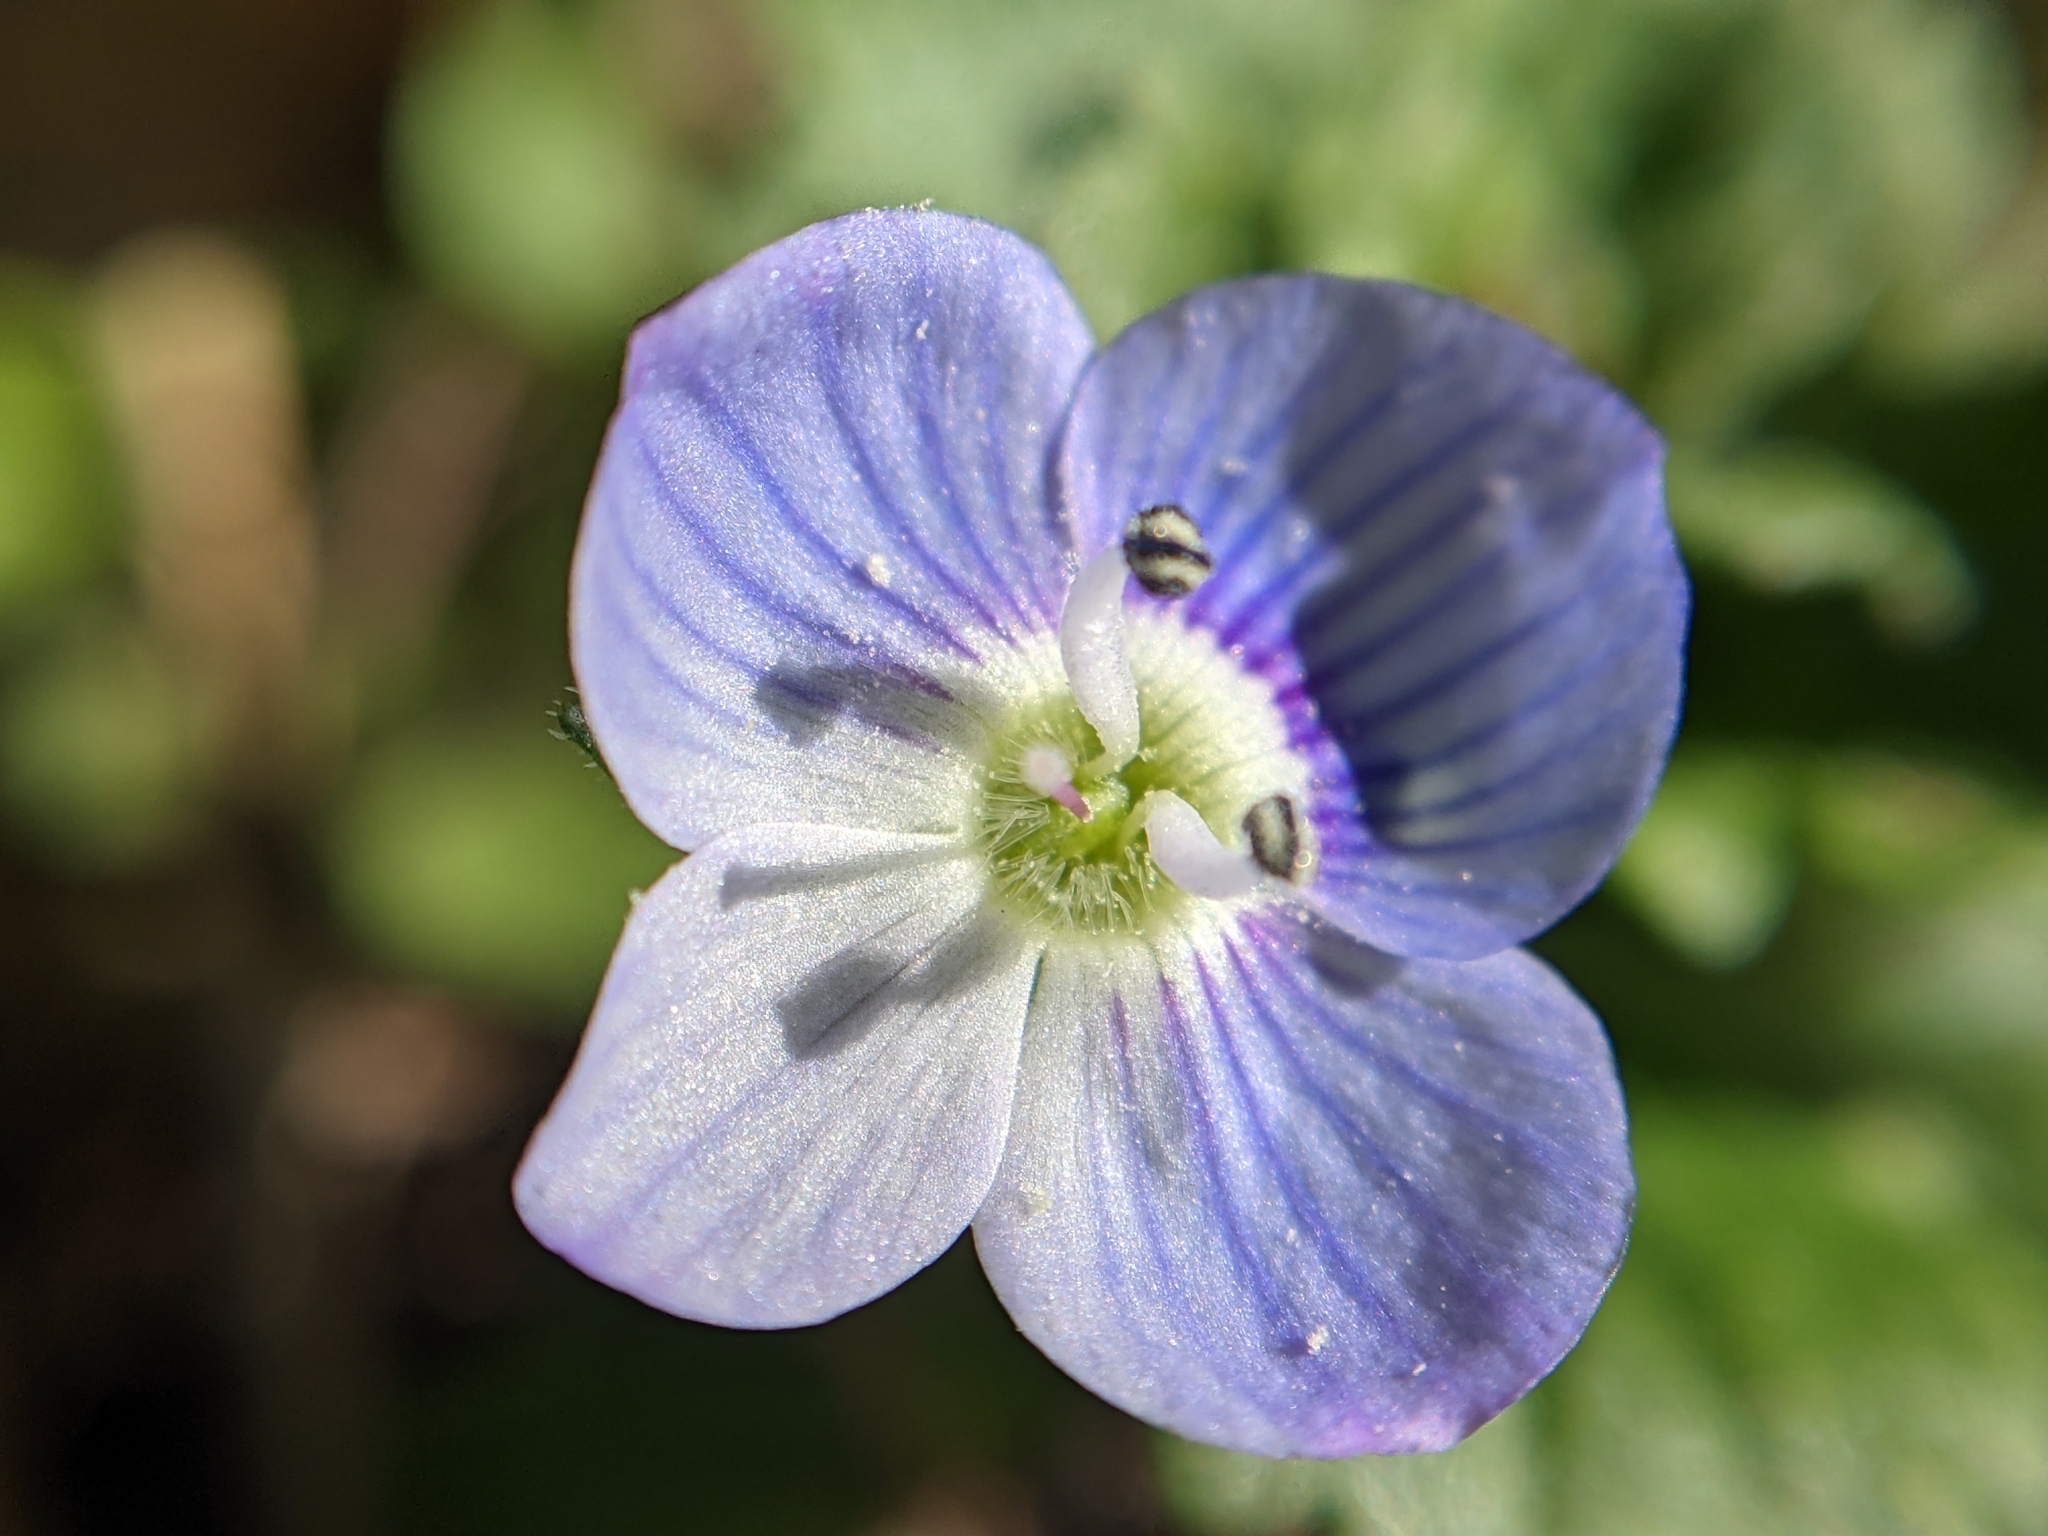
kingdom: Plantae
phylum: Tracheophyta
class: Magnoliopsida
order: Lamiales
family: Plantaginaceae
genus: Veronica
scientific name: Veronica persica
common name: Common field-speedwell
